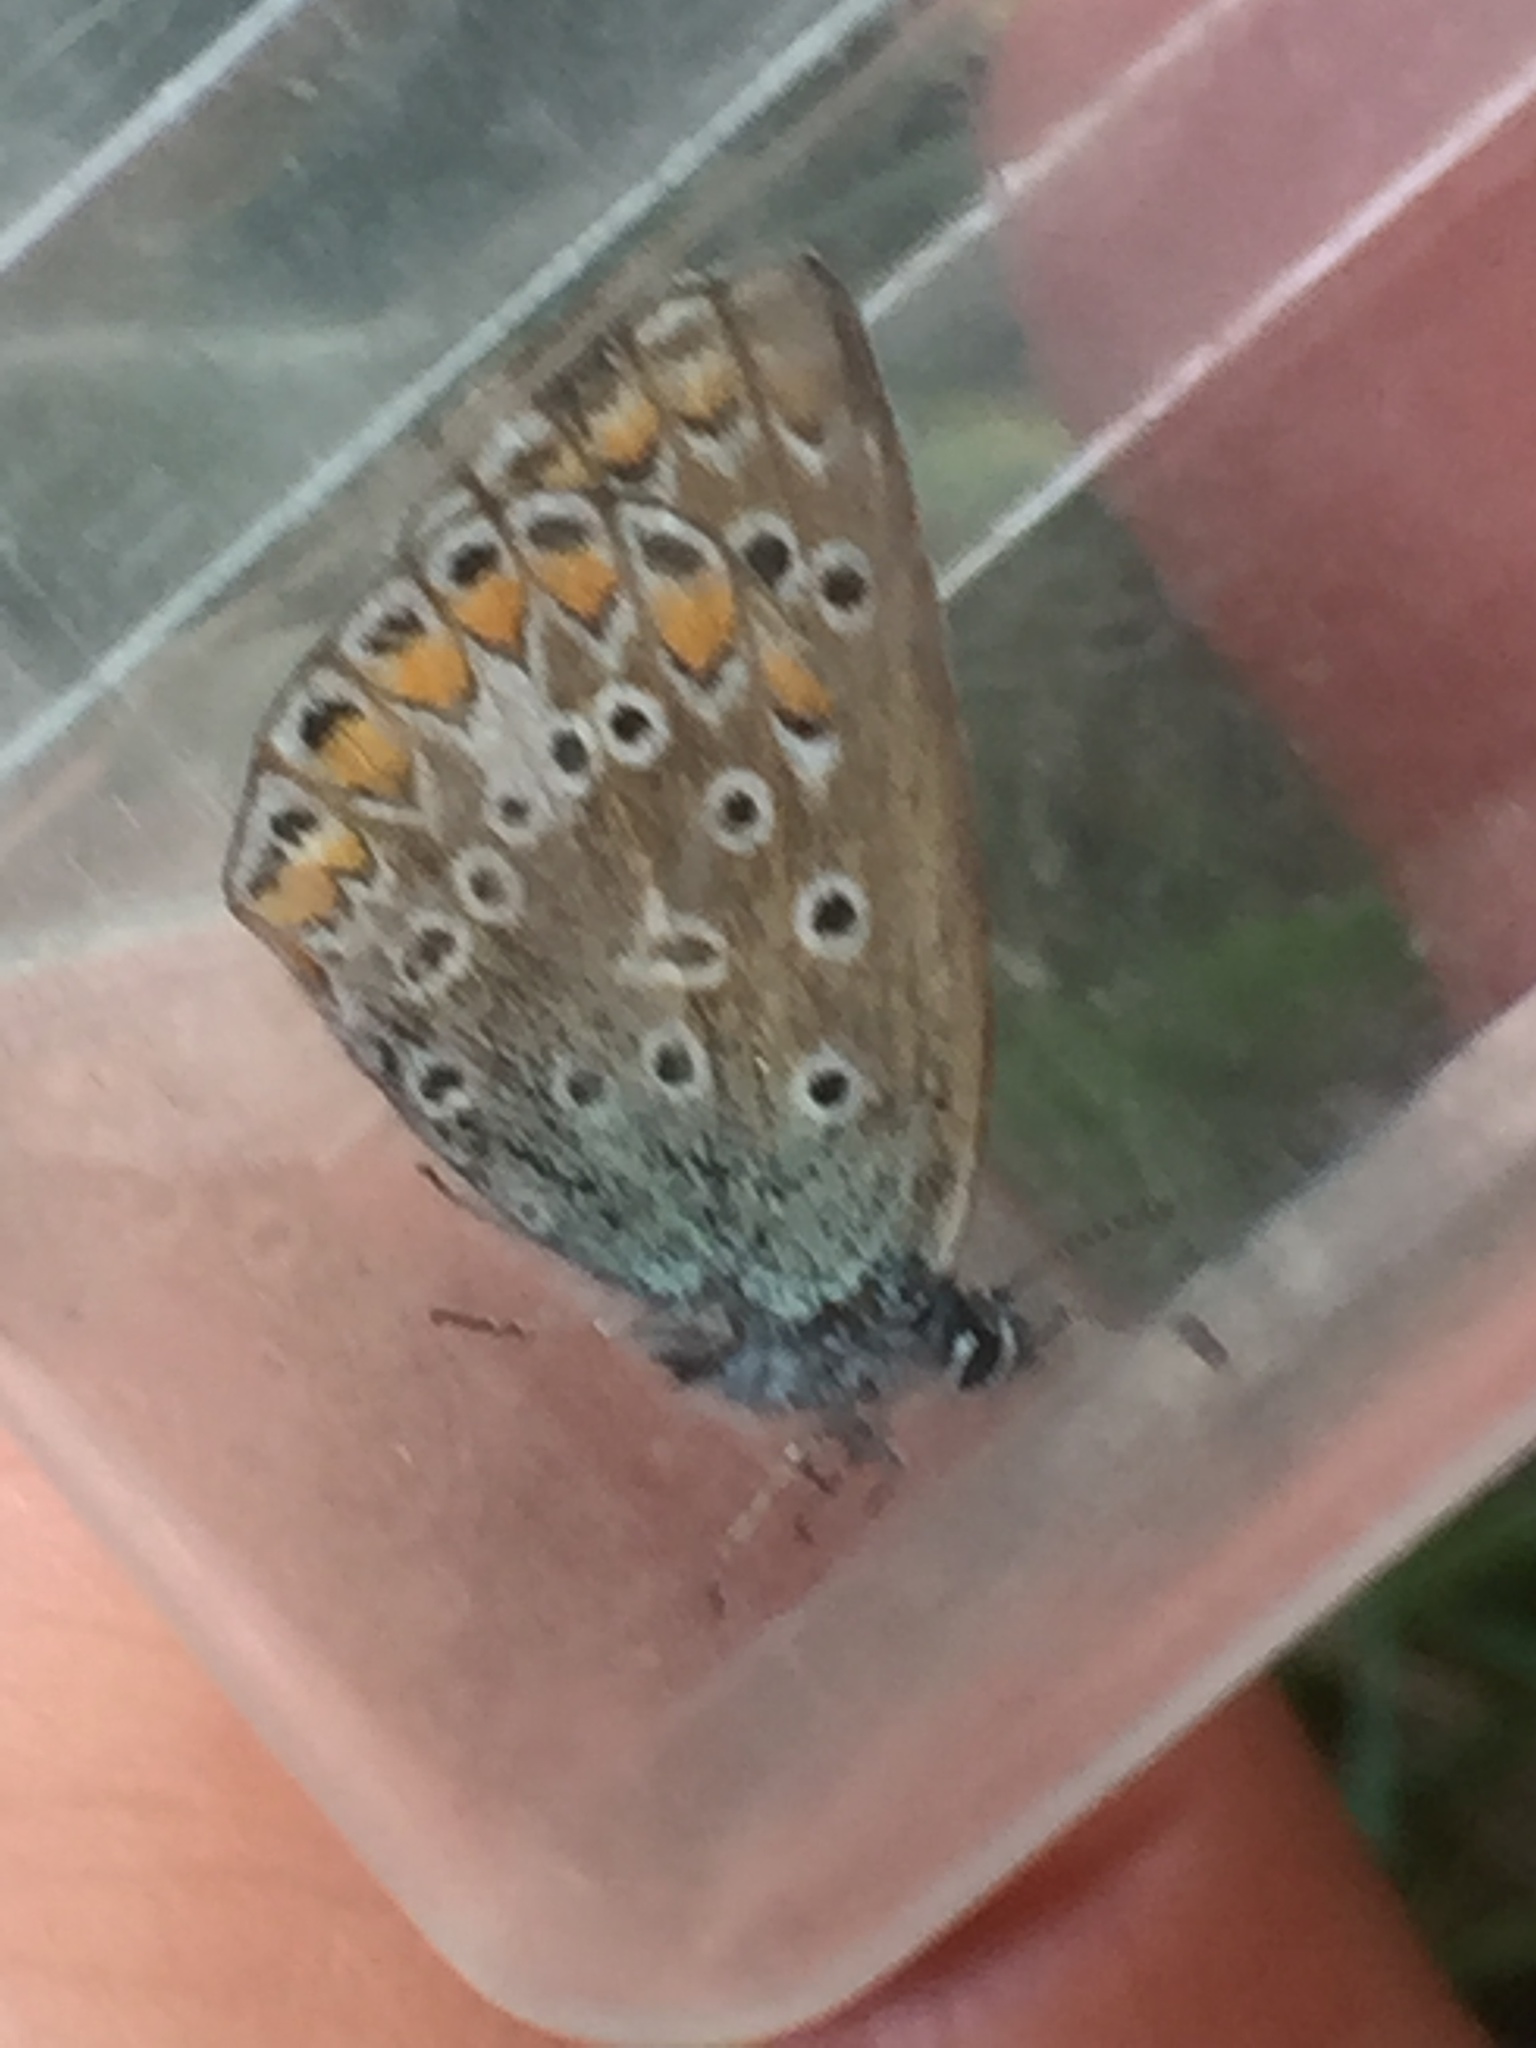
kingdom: Animalia
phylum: Arthropoda
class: Insecta
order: Lepidoptera
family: Lycaenidae
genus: Polyommatus
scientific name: Polyommatus icarus
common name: Common blue
